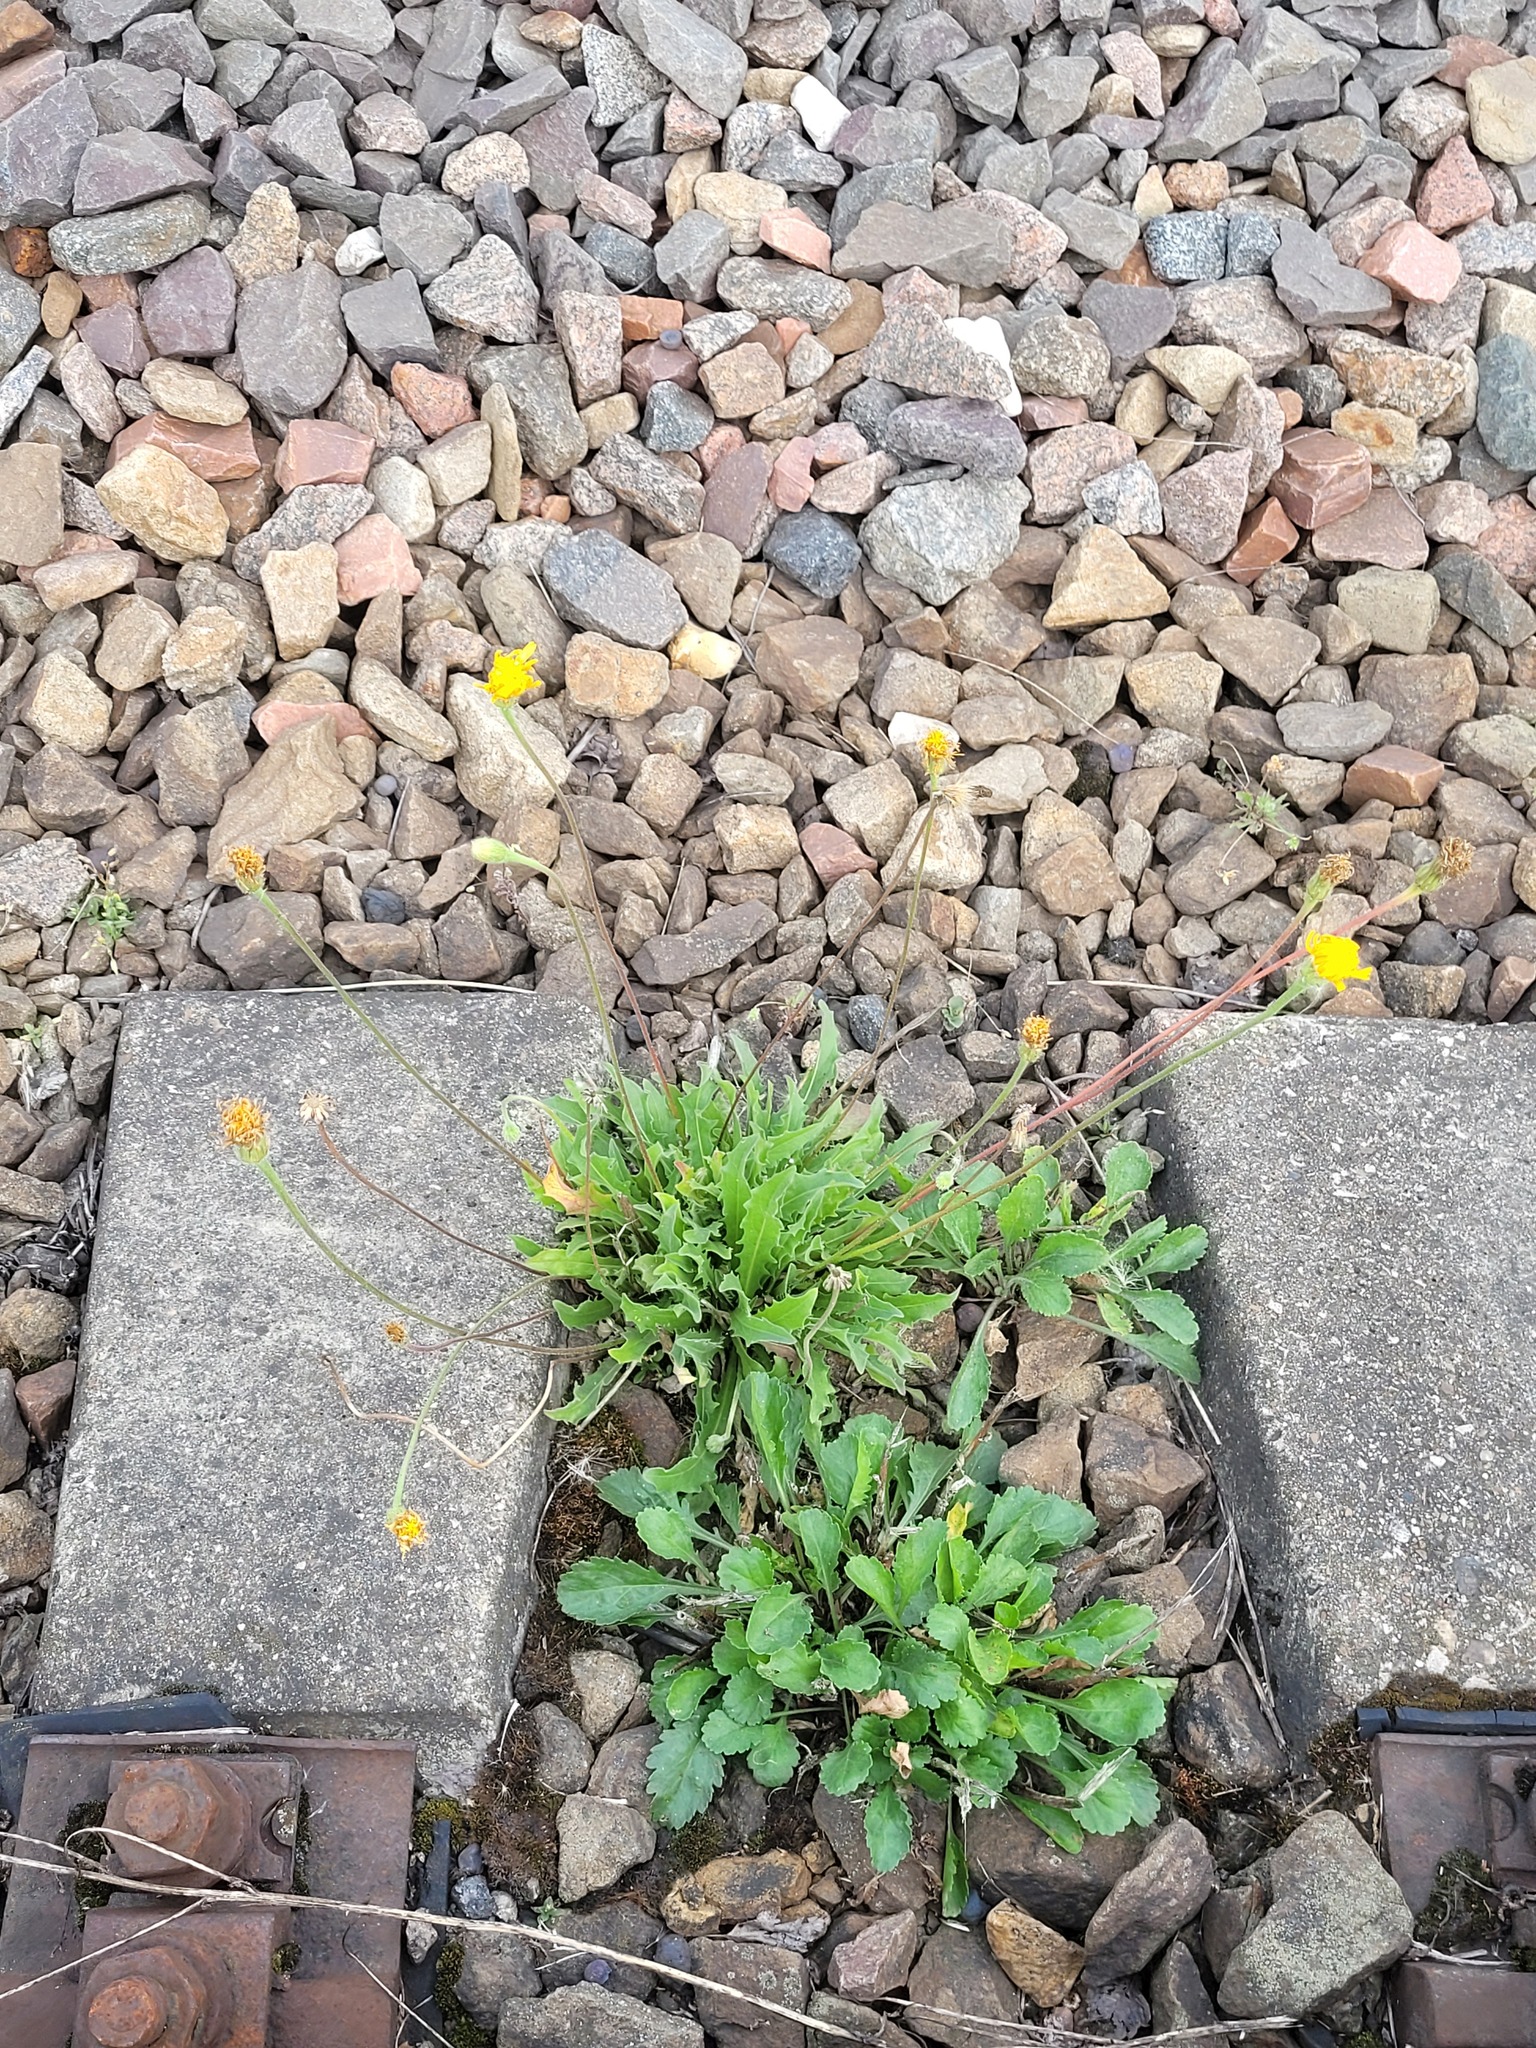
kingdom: Plantae
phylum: Tracheophyta
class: Magnoliopsida
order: Asterales
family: Asteraceae
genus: Leontodon
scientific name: Leontodon hispidus
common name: Rough hawkbit
